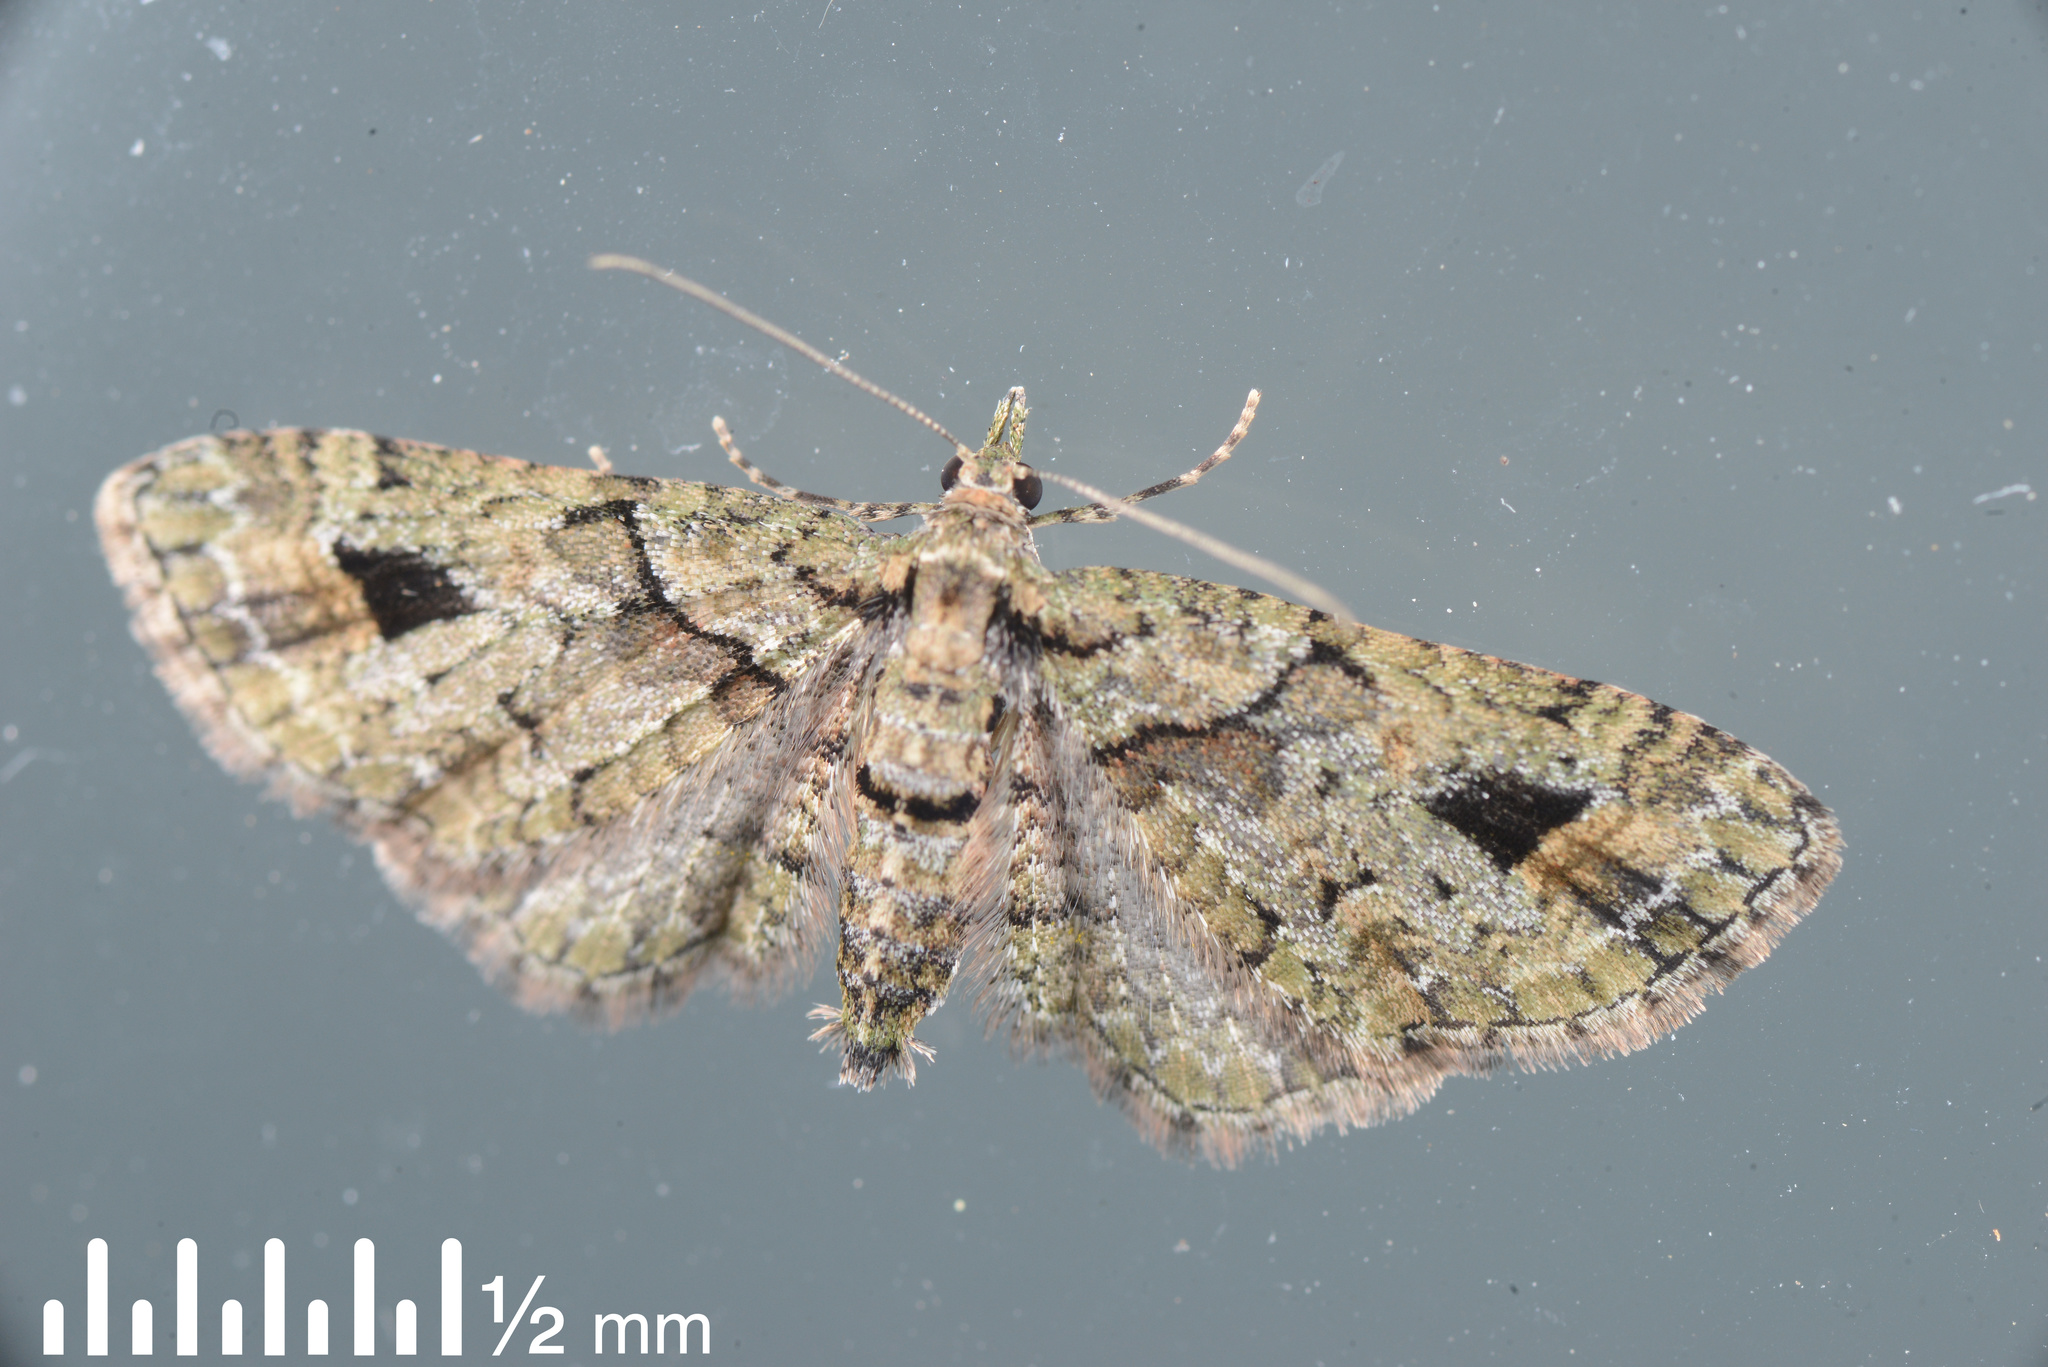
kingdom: Animalia
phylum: Arthropoda
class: Insecta
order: Lepidoptera
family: Geometridae
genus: Idaea
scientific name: Idaea mutanda
